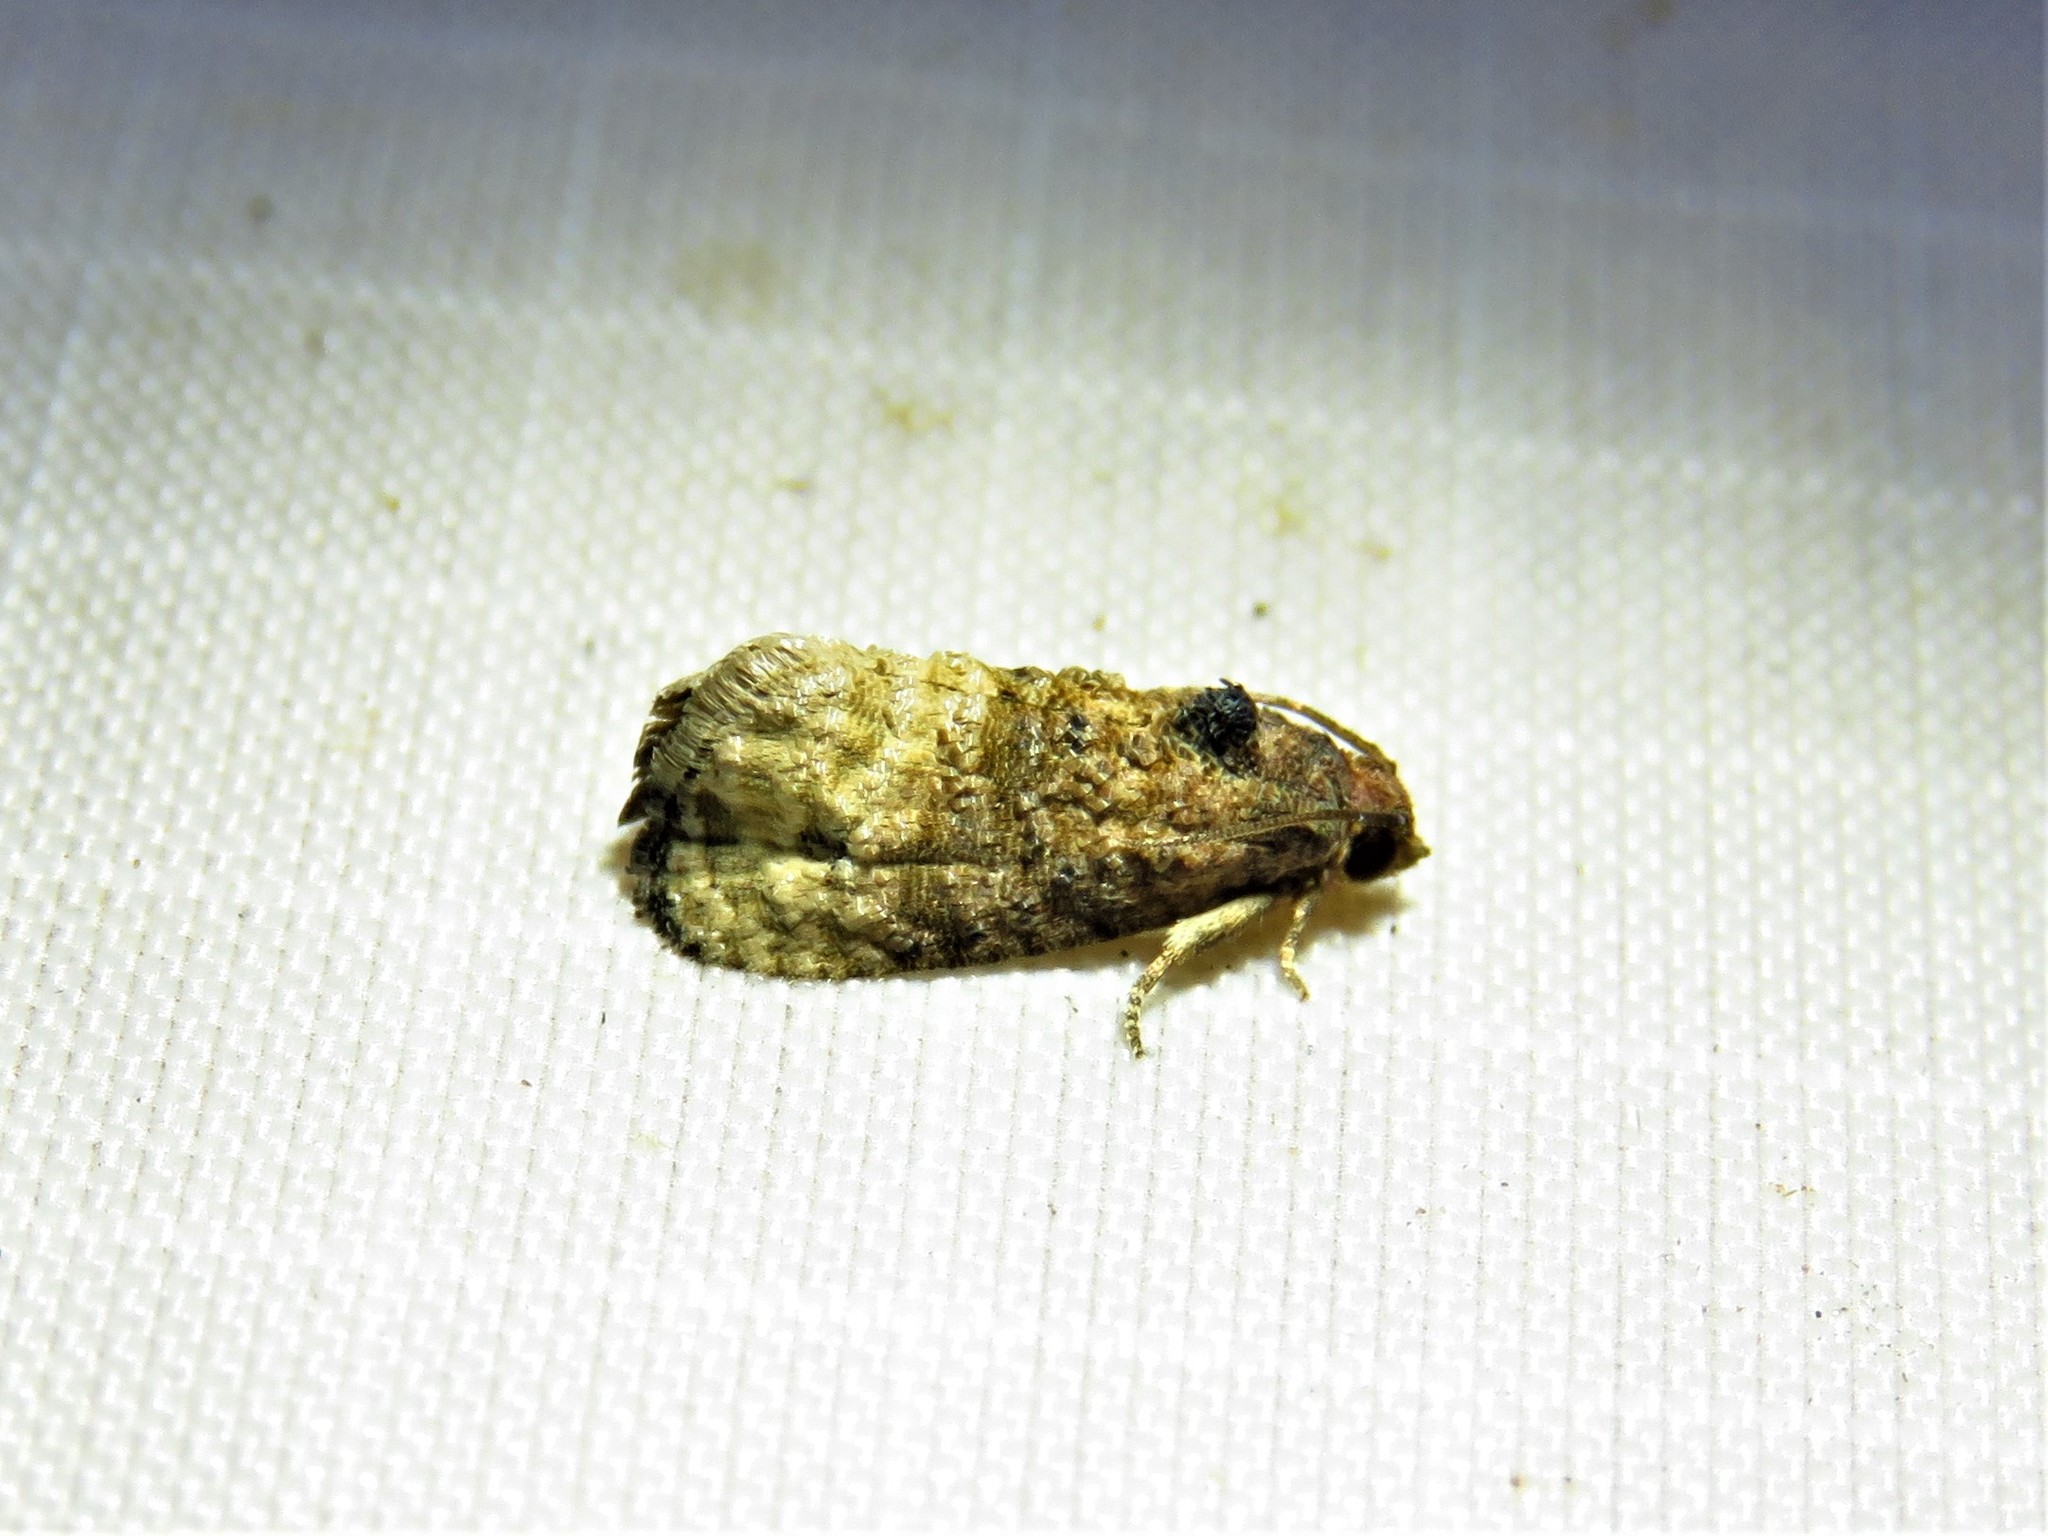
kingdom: Animalia
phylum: Arthropoda
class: Insecta
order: Lepidoptera
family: Tortricidae
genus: Ecdytolopha
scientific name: Ecdytolopha mana
